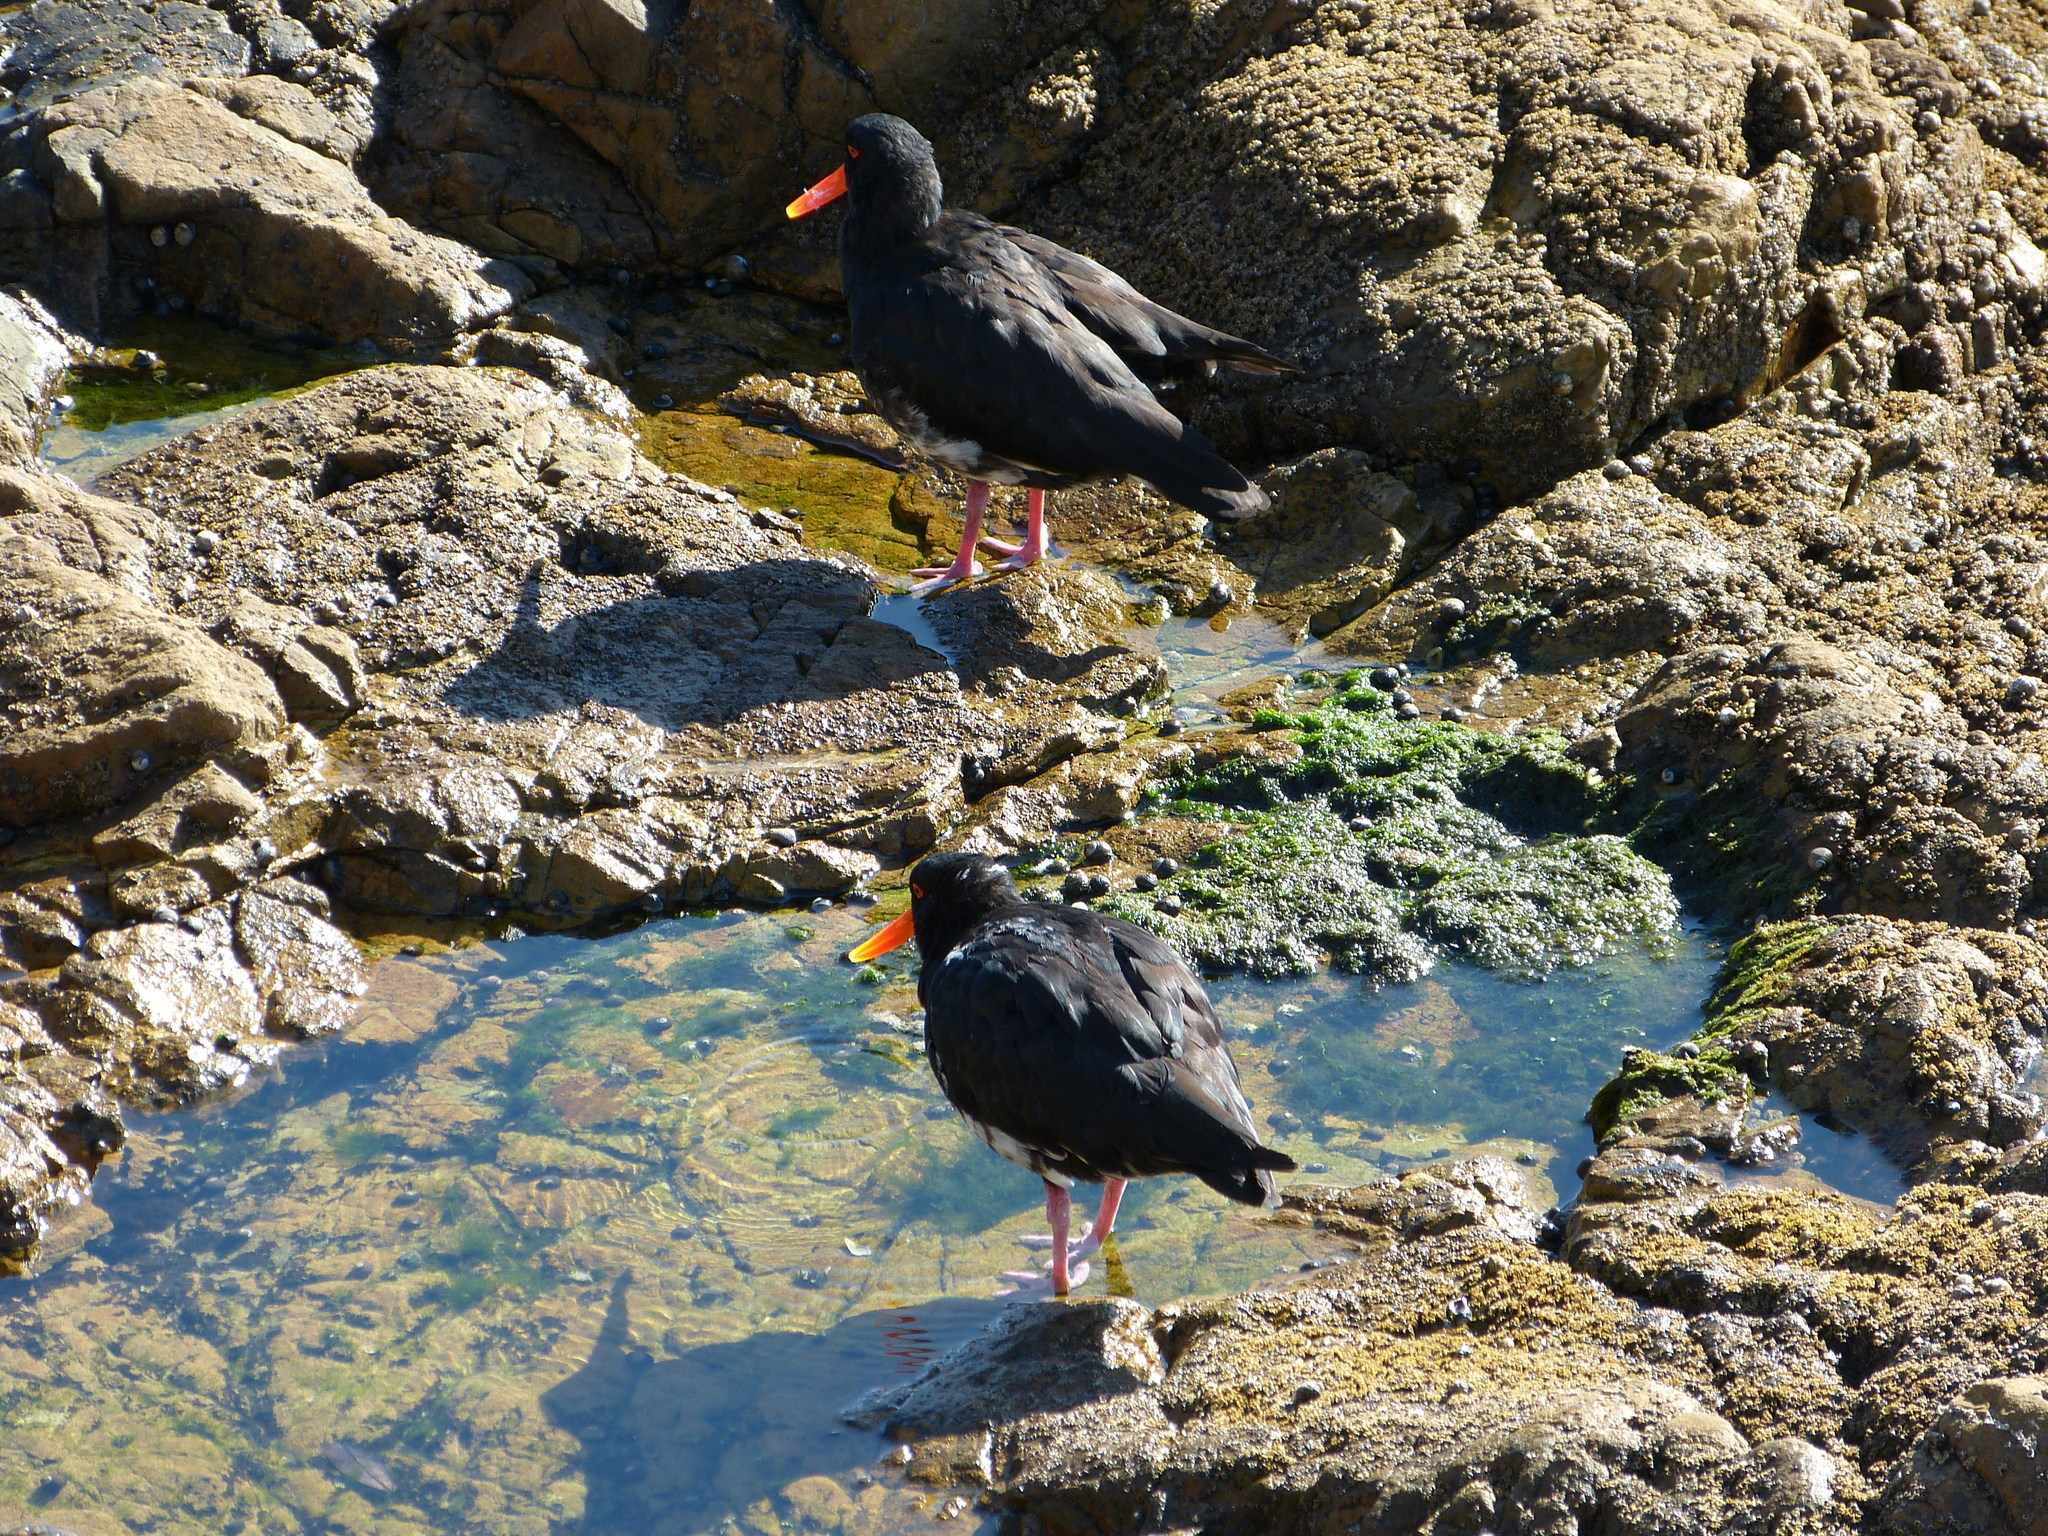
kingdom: Animalia
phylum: Chordata
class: Aves
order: Charadriiformes
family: Haematopodidae
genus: Haematopus
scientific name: Haematopus unicolor
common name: Variable oystercatcher
